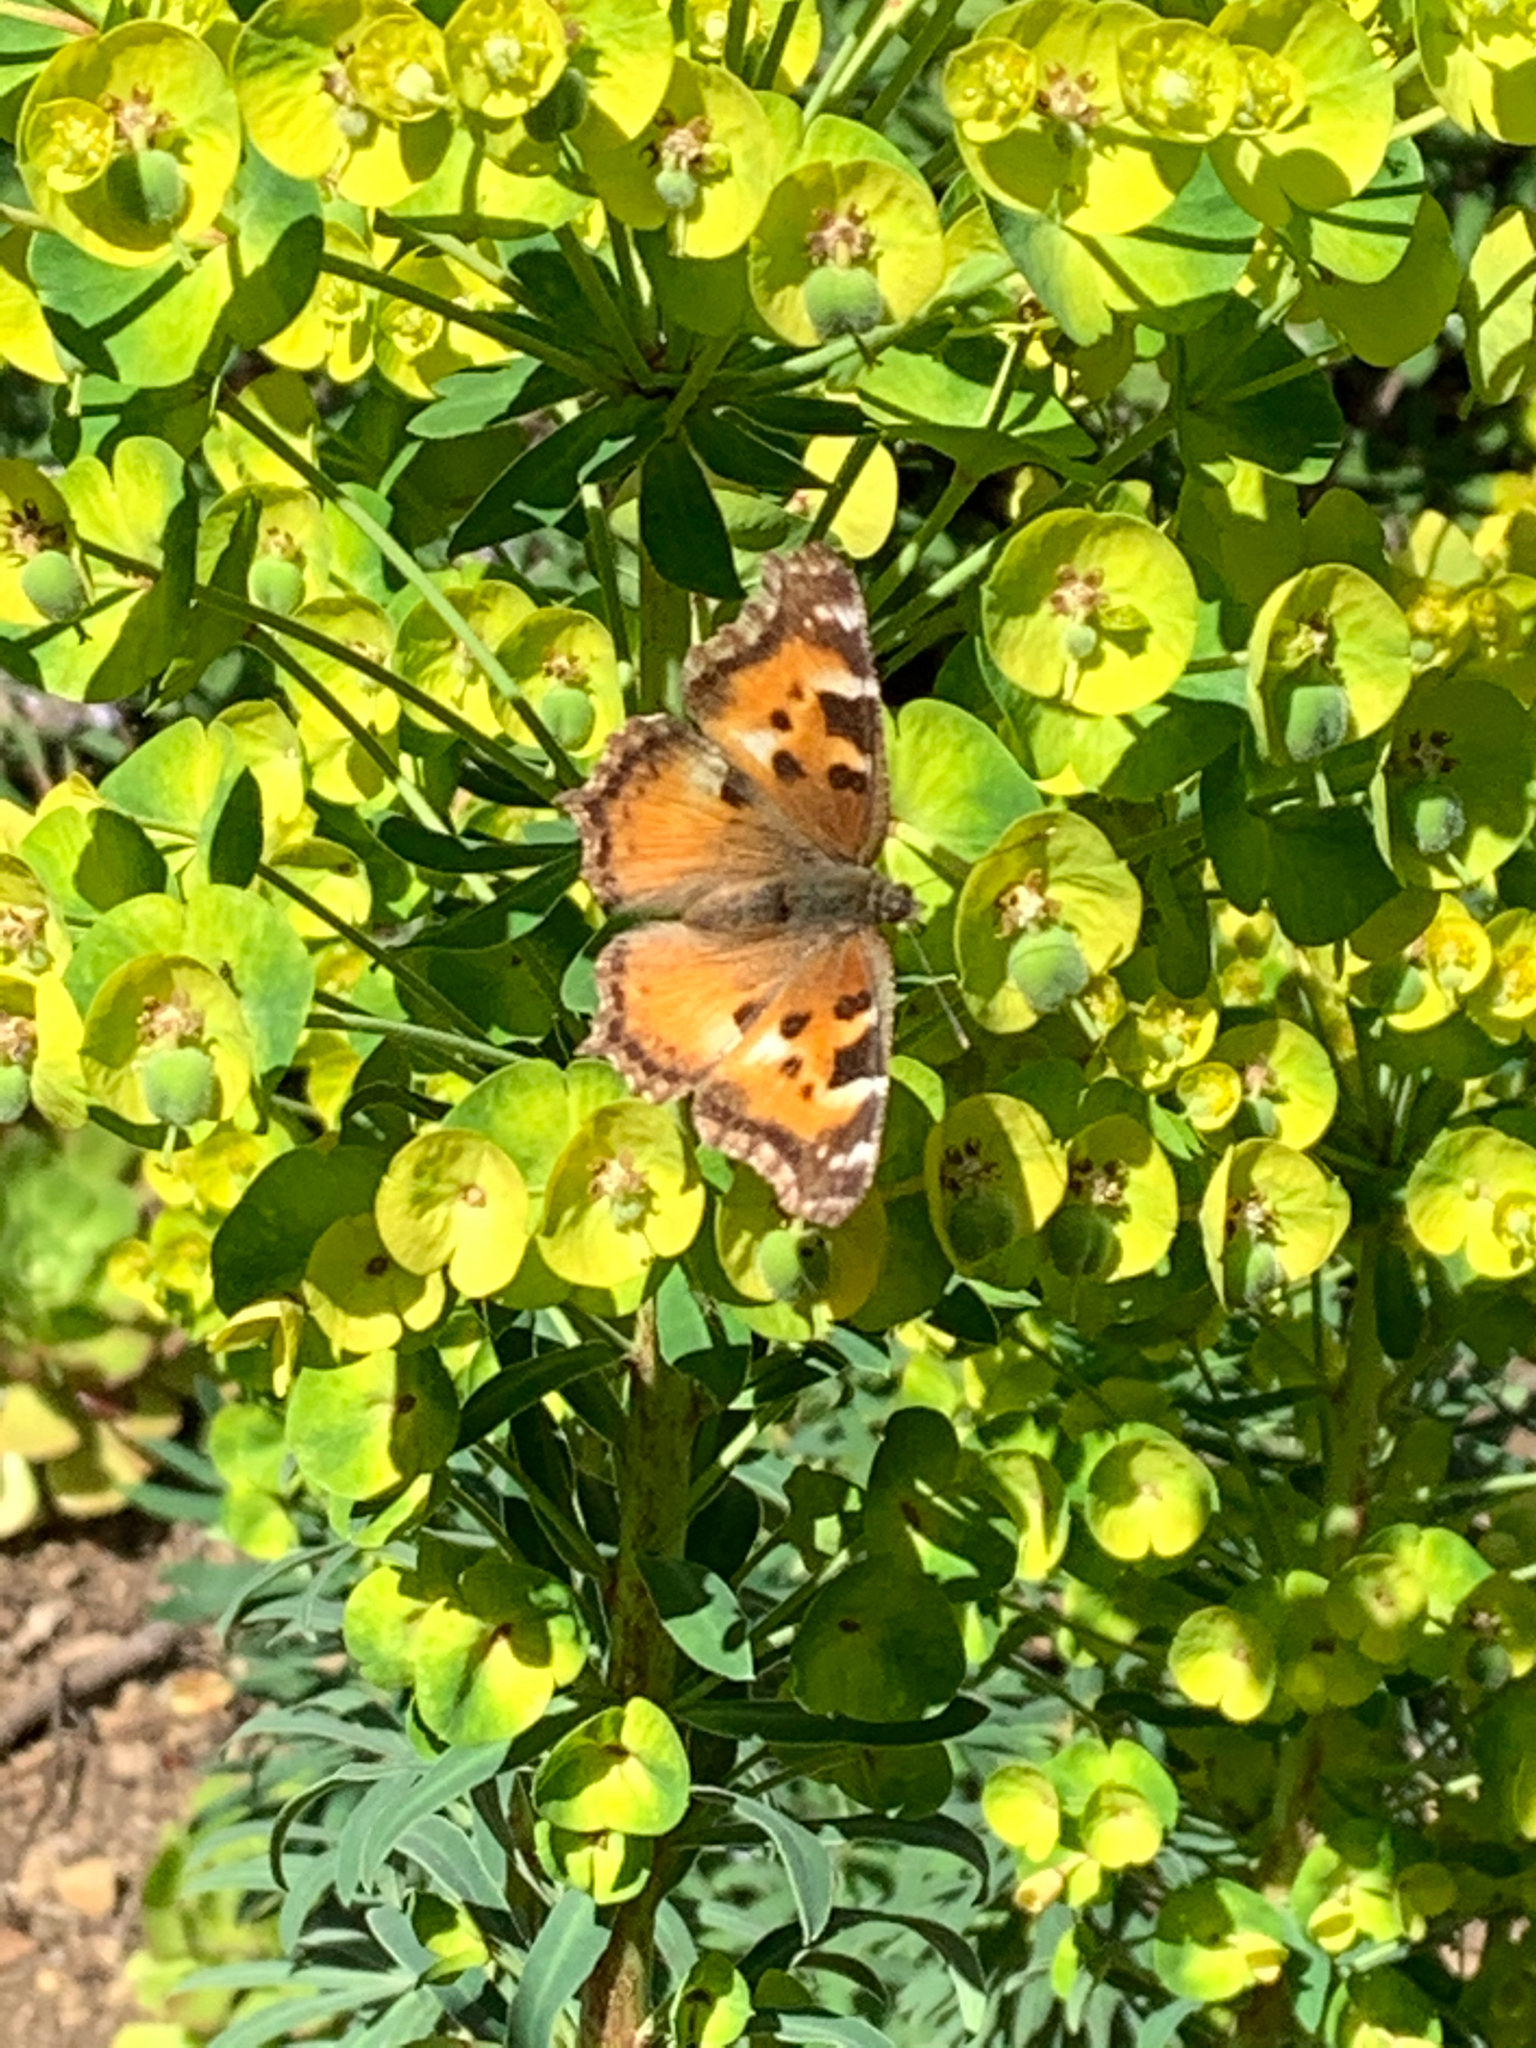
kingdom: Animalia
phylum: Arthropoda
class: Insecta
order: Lepidoptera
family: Nymphalidae
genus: Nymphalis
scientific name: Nymphalis californica
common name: California tortoiseshell
